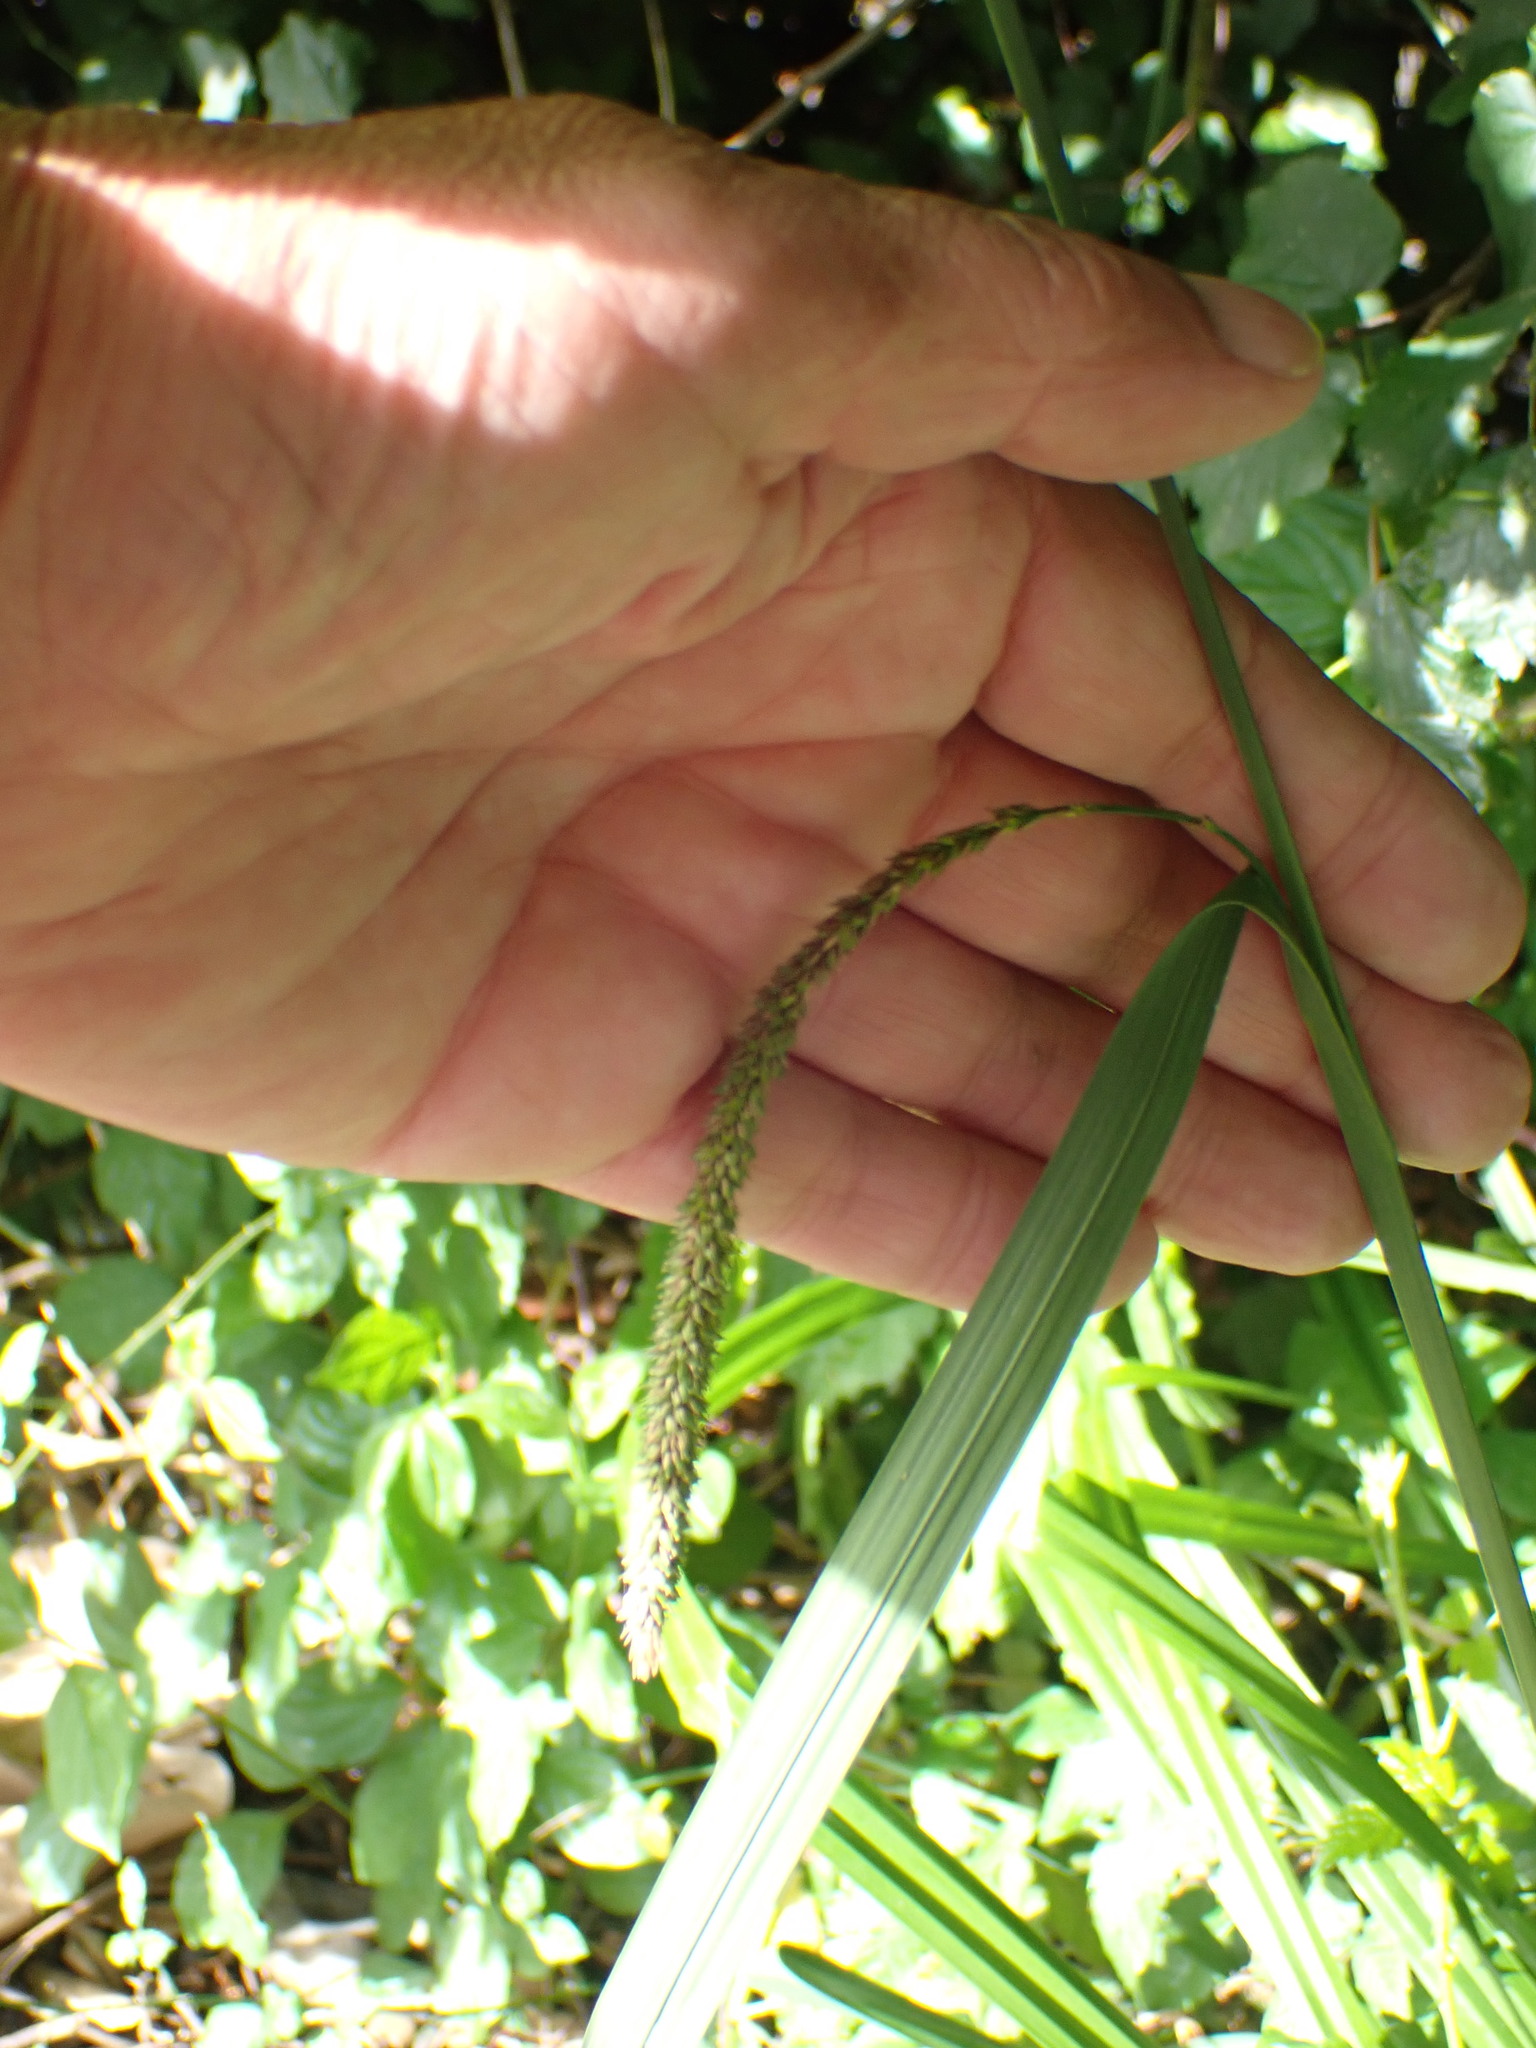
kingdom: Plantae
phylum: Tracheophyta
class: Liliopsida
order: Poales
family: Cyperaceae
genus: Carex
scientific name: Carex pendula
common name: Pendulous sedge
